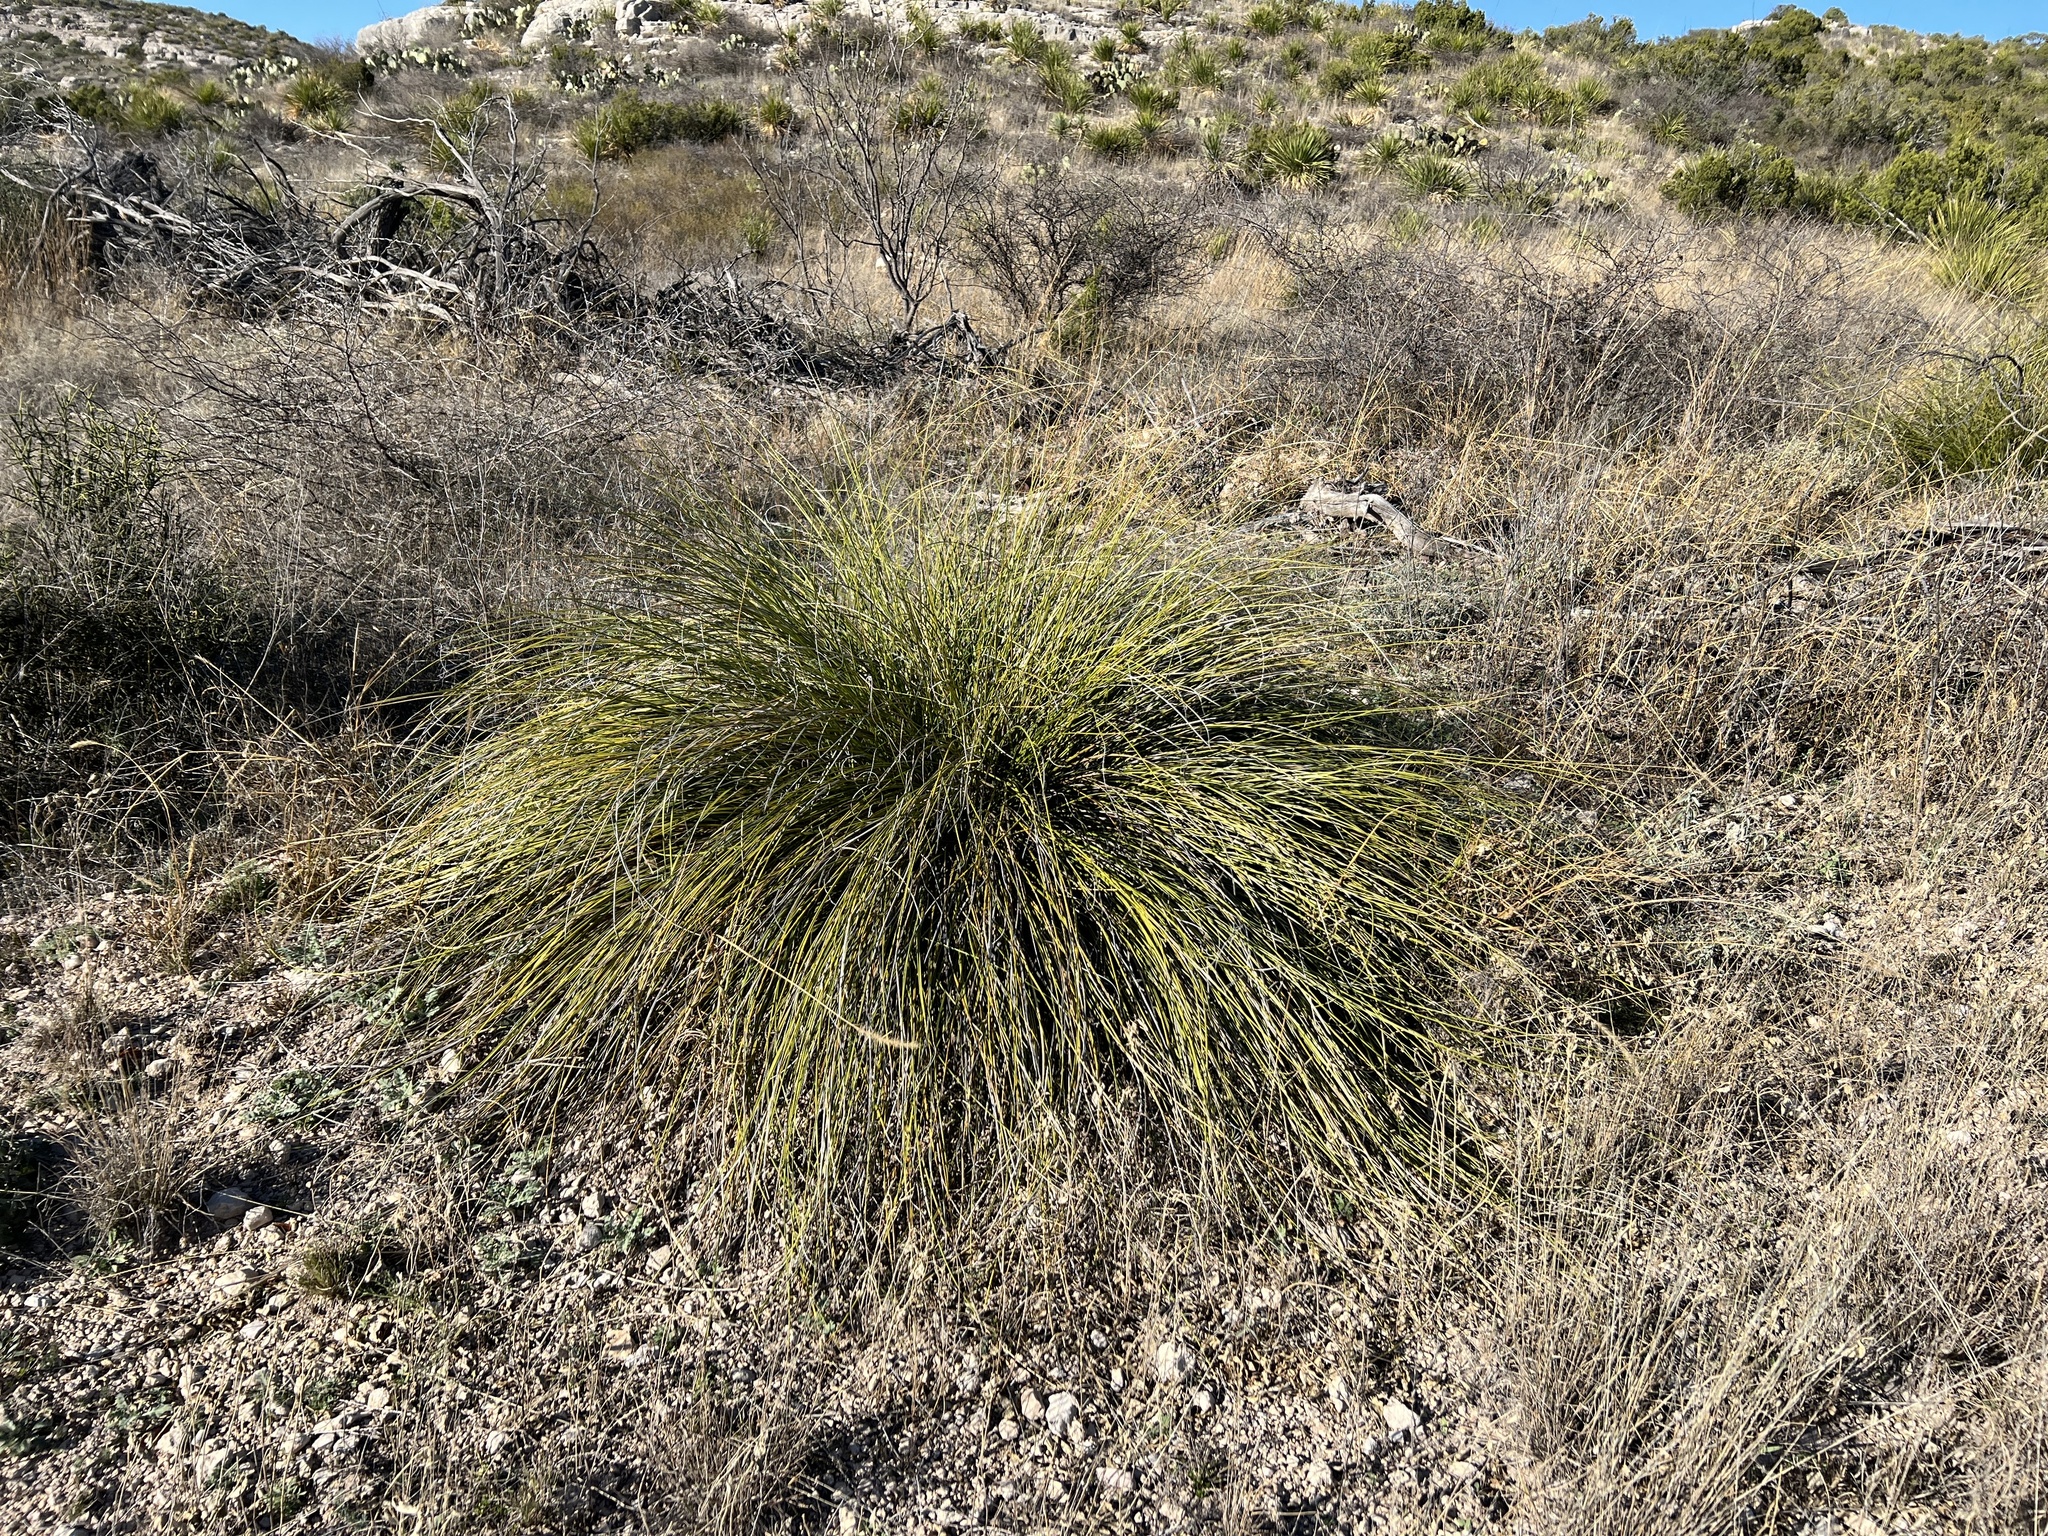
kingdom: Plantae
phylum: Tracheophyta
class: Liliopsida
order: Asparagales
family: Asparagaceae
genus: Nolina
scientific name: Nolina texana
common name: Texas sacahuiste
